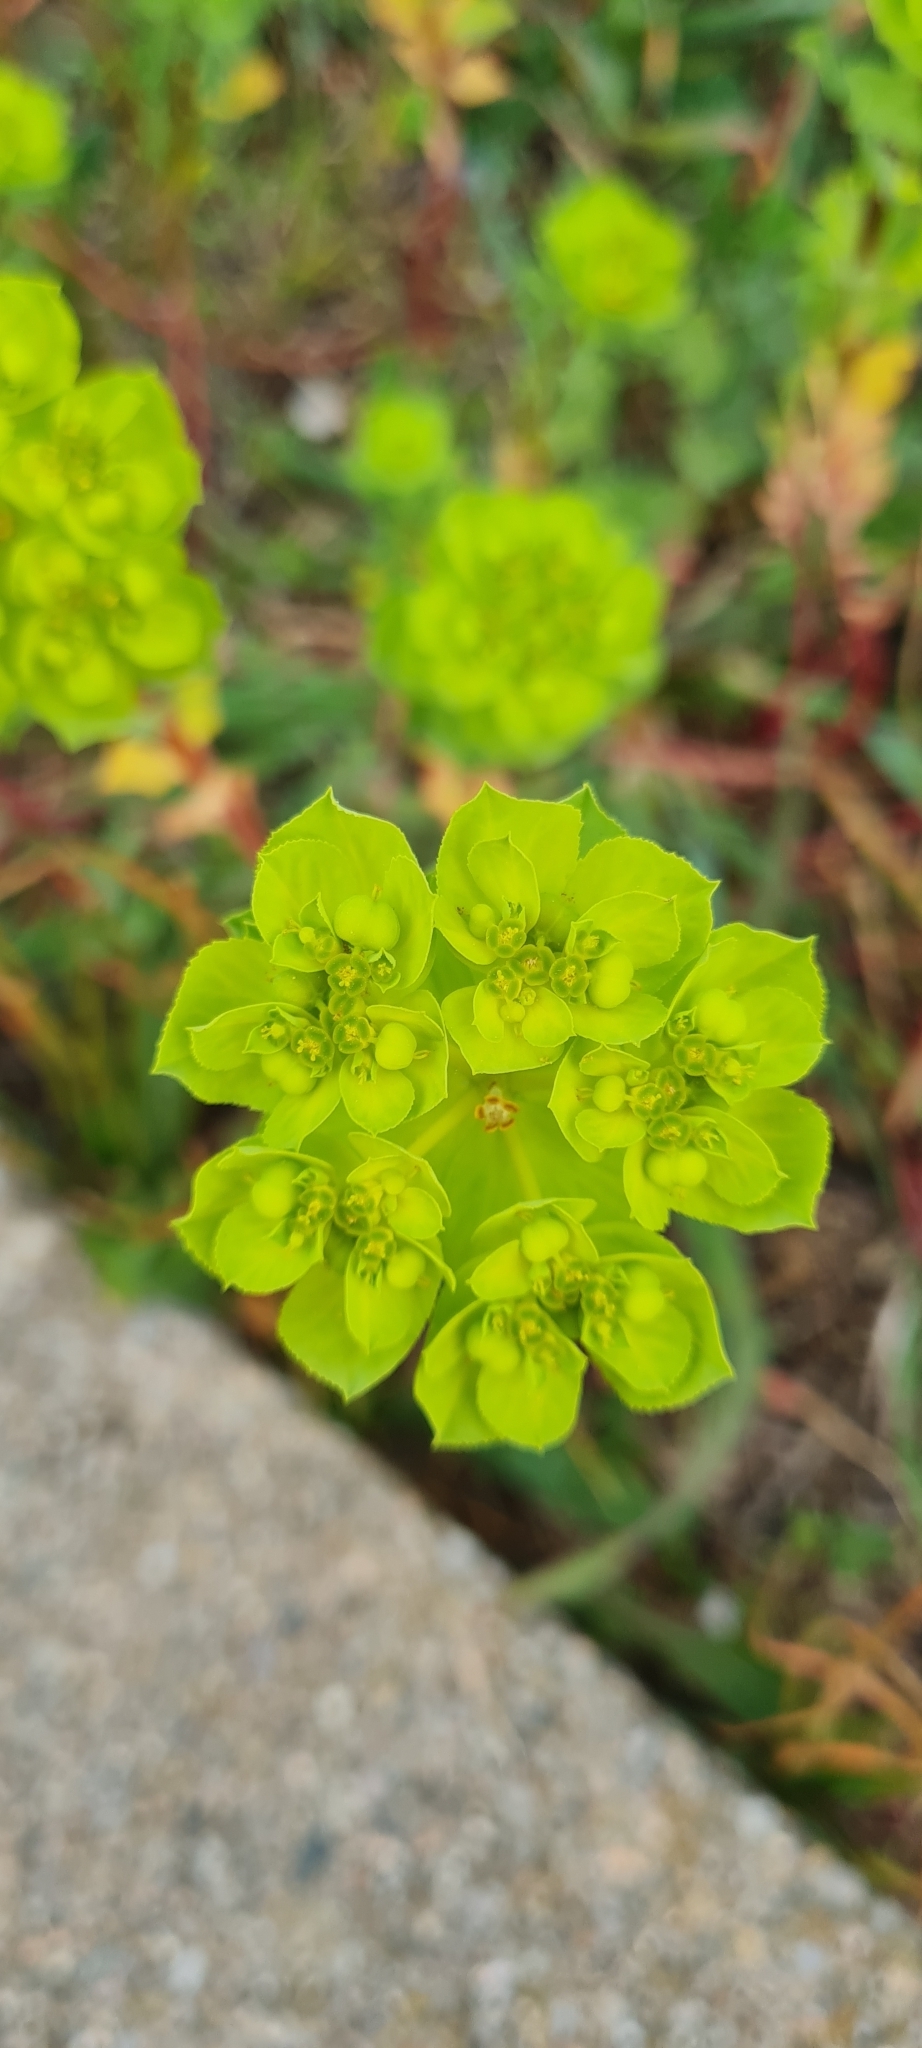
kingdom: Plantae
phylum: Tracheophyta
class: Magnoliopsida
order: Malpighiales
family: Euphorbiaceae
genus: Euphorbia
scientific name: Euphorbia helioscopia
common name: Sun spurge
